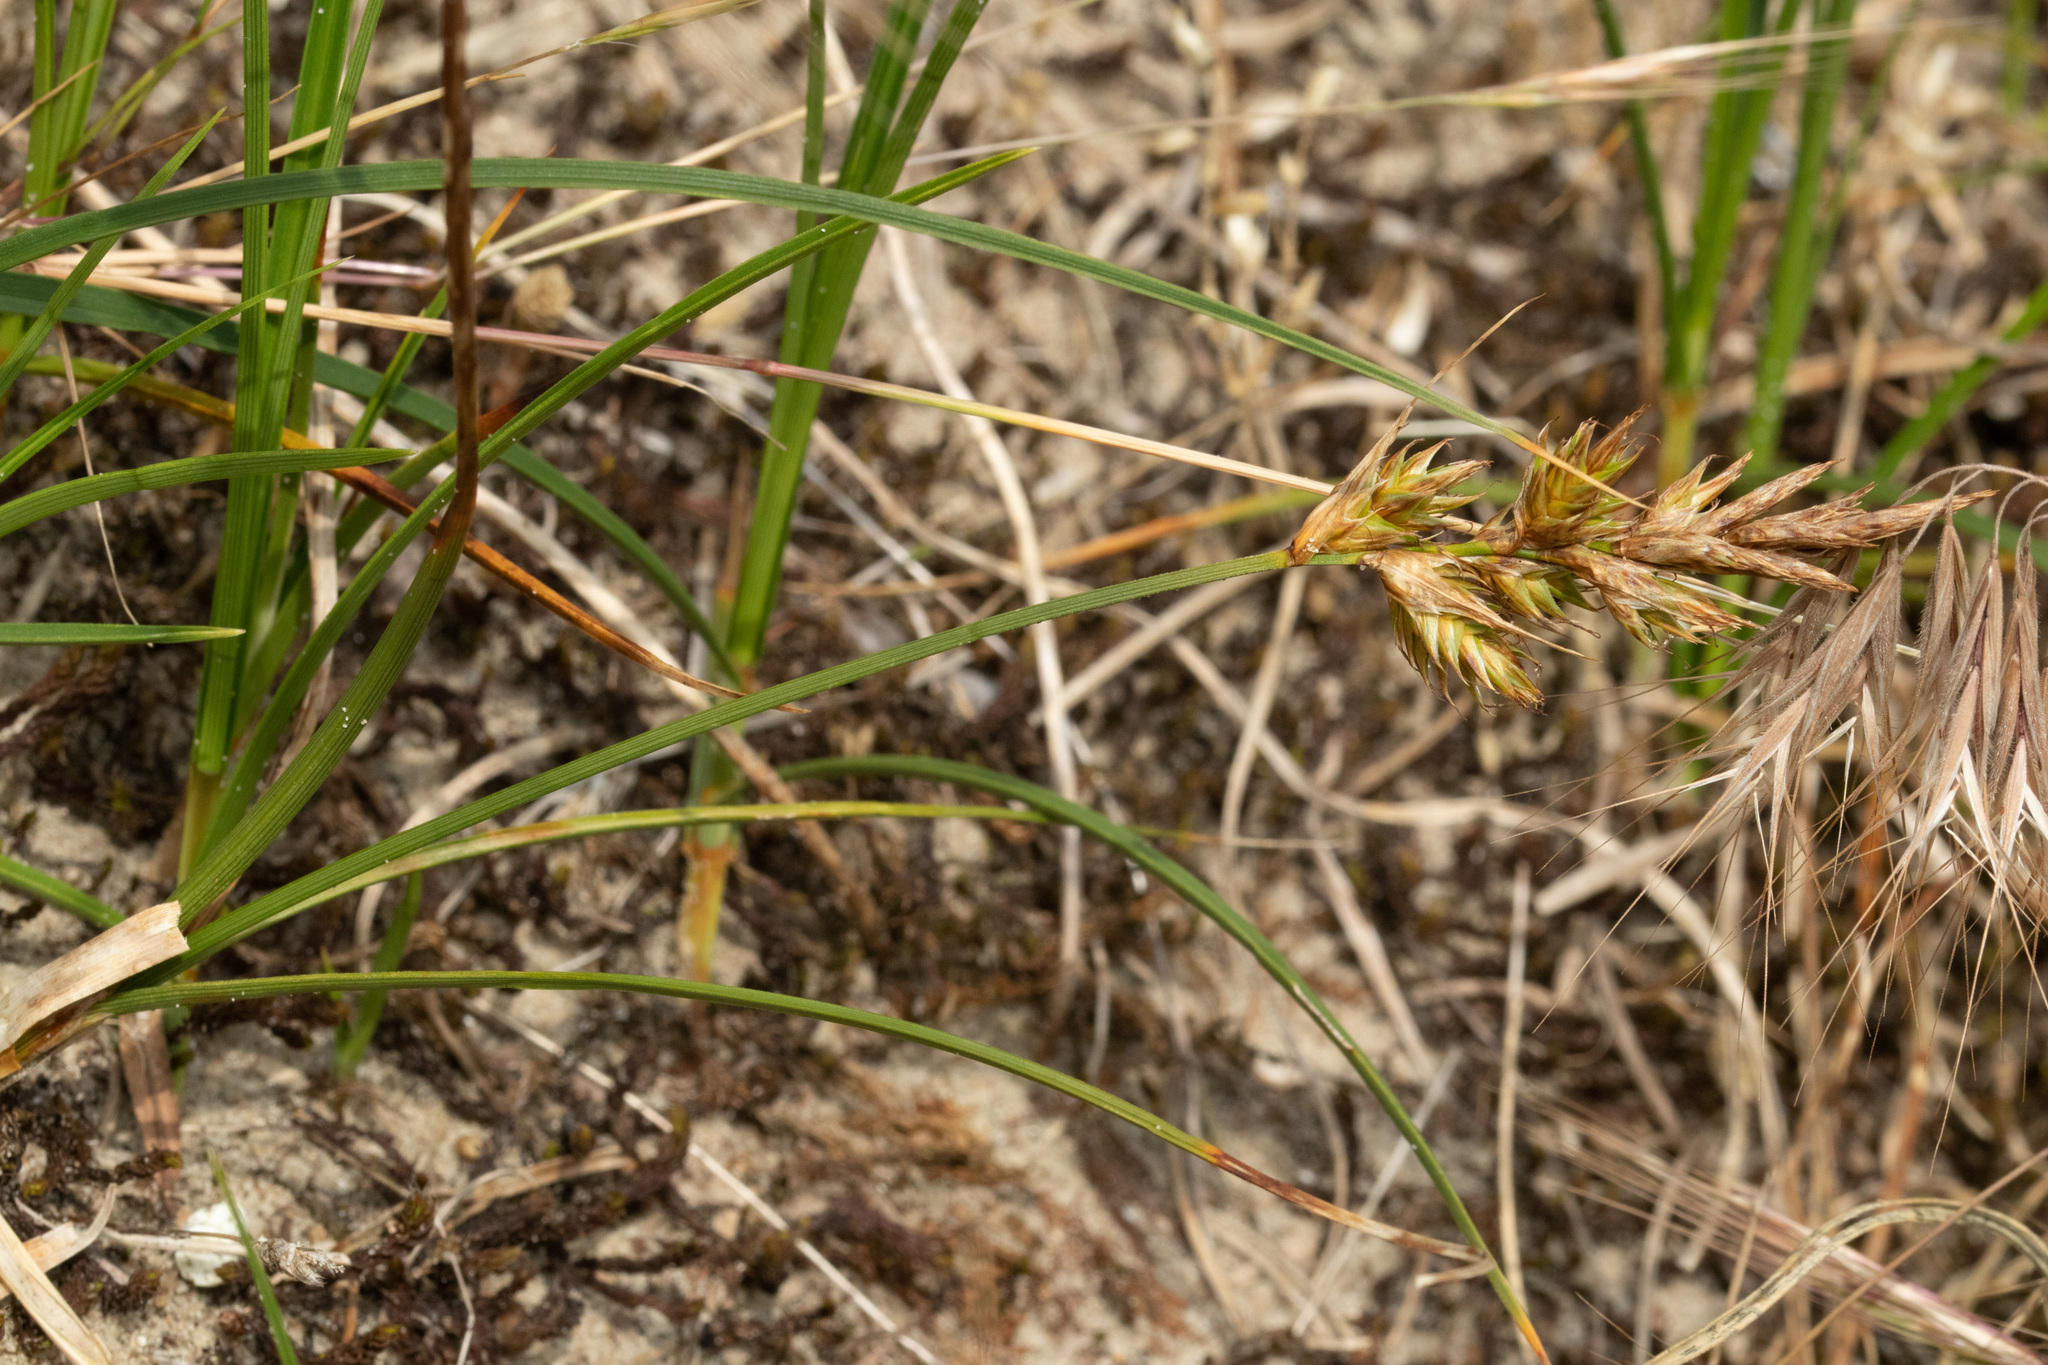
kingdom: Plantae
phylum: Tracheophyta
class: Liliopsida
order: Poales
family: Cyperaceae
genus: Carex
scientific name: Carex arenaria
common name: Sand sedge
